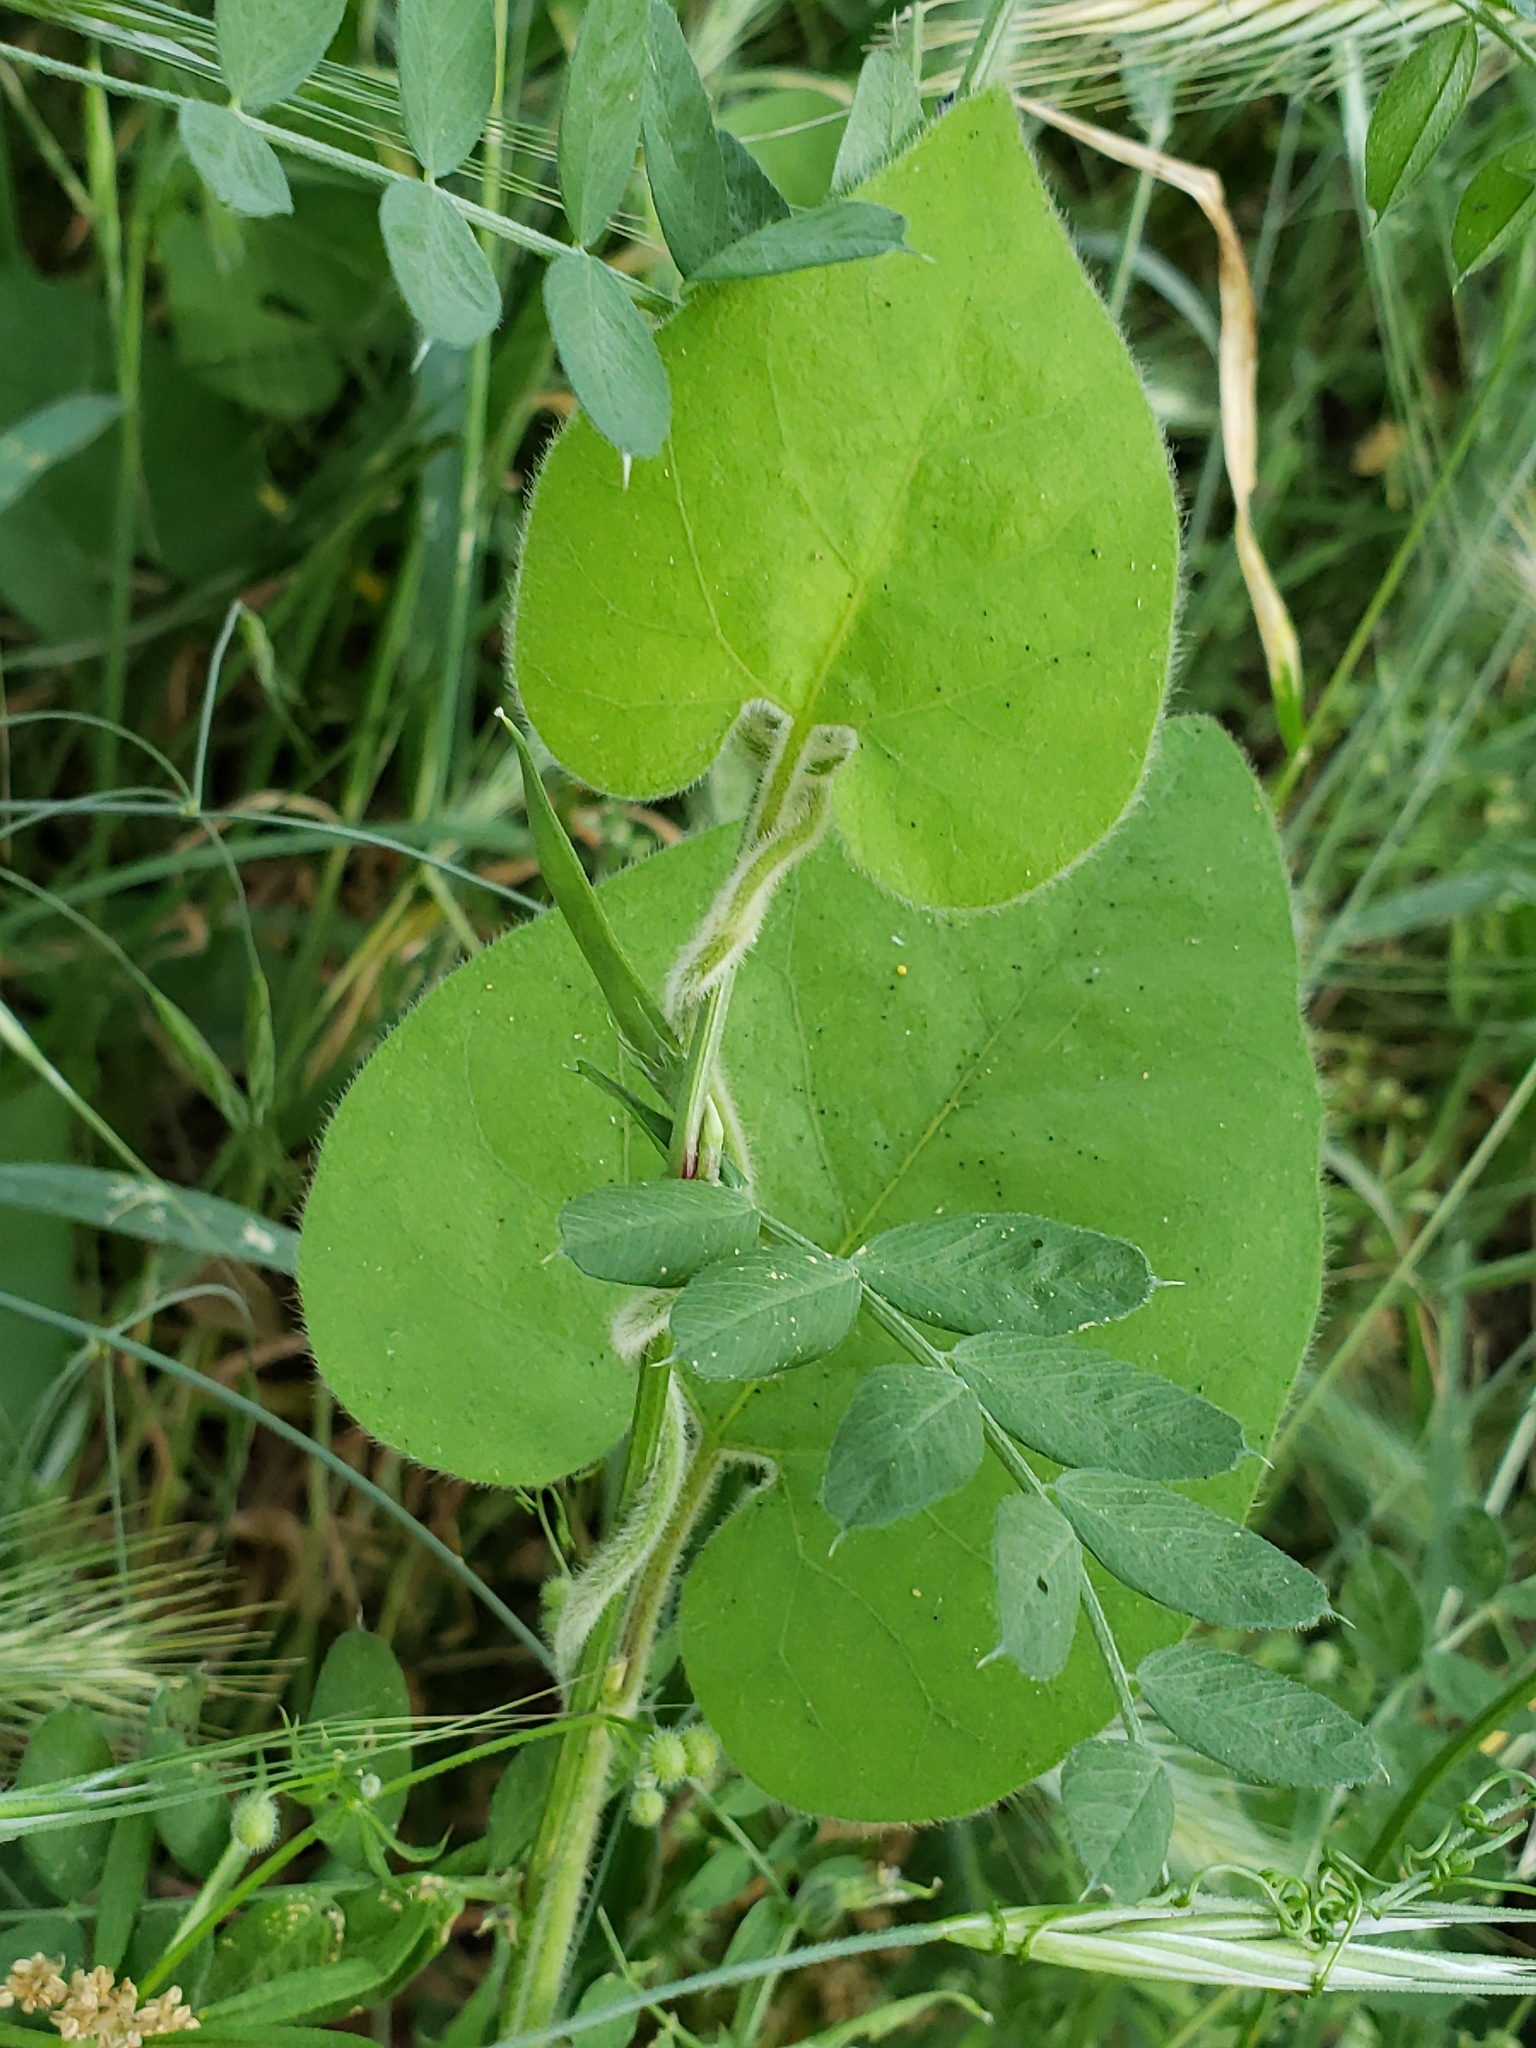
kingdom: Plantae
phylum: Tracheophyta
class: Magnoliopsida
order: Piperales
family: Aristolochiaceae
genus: Isotrema
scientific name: Isotrema californicum
